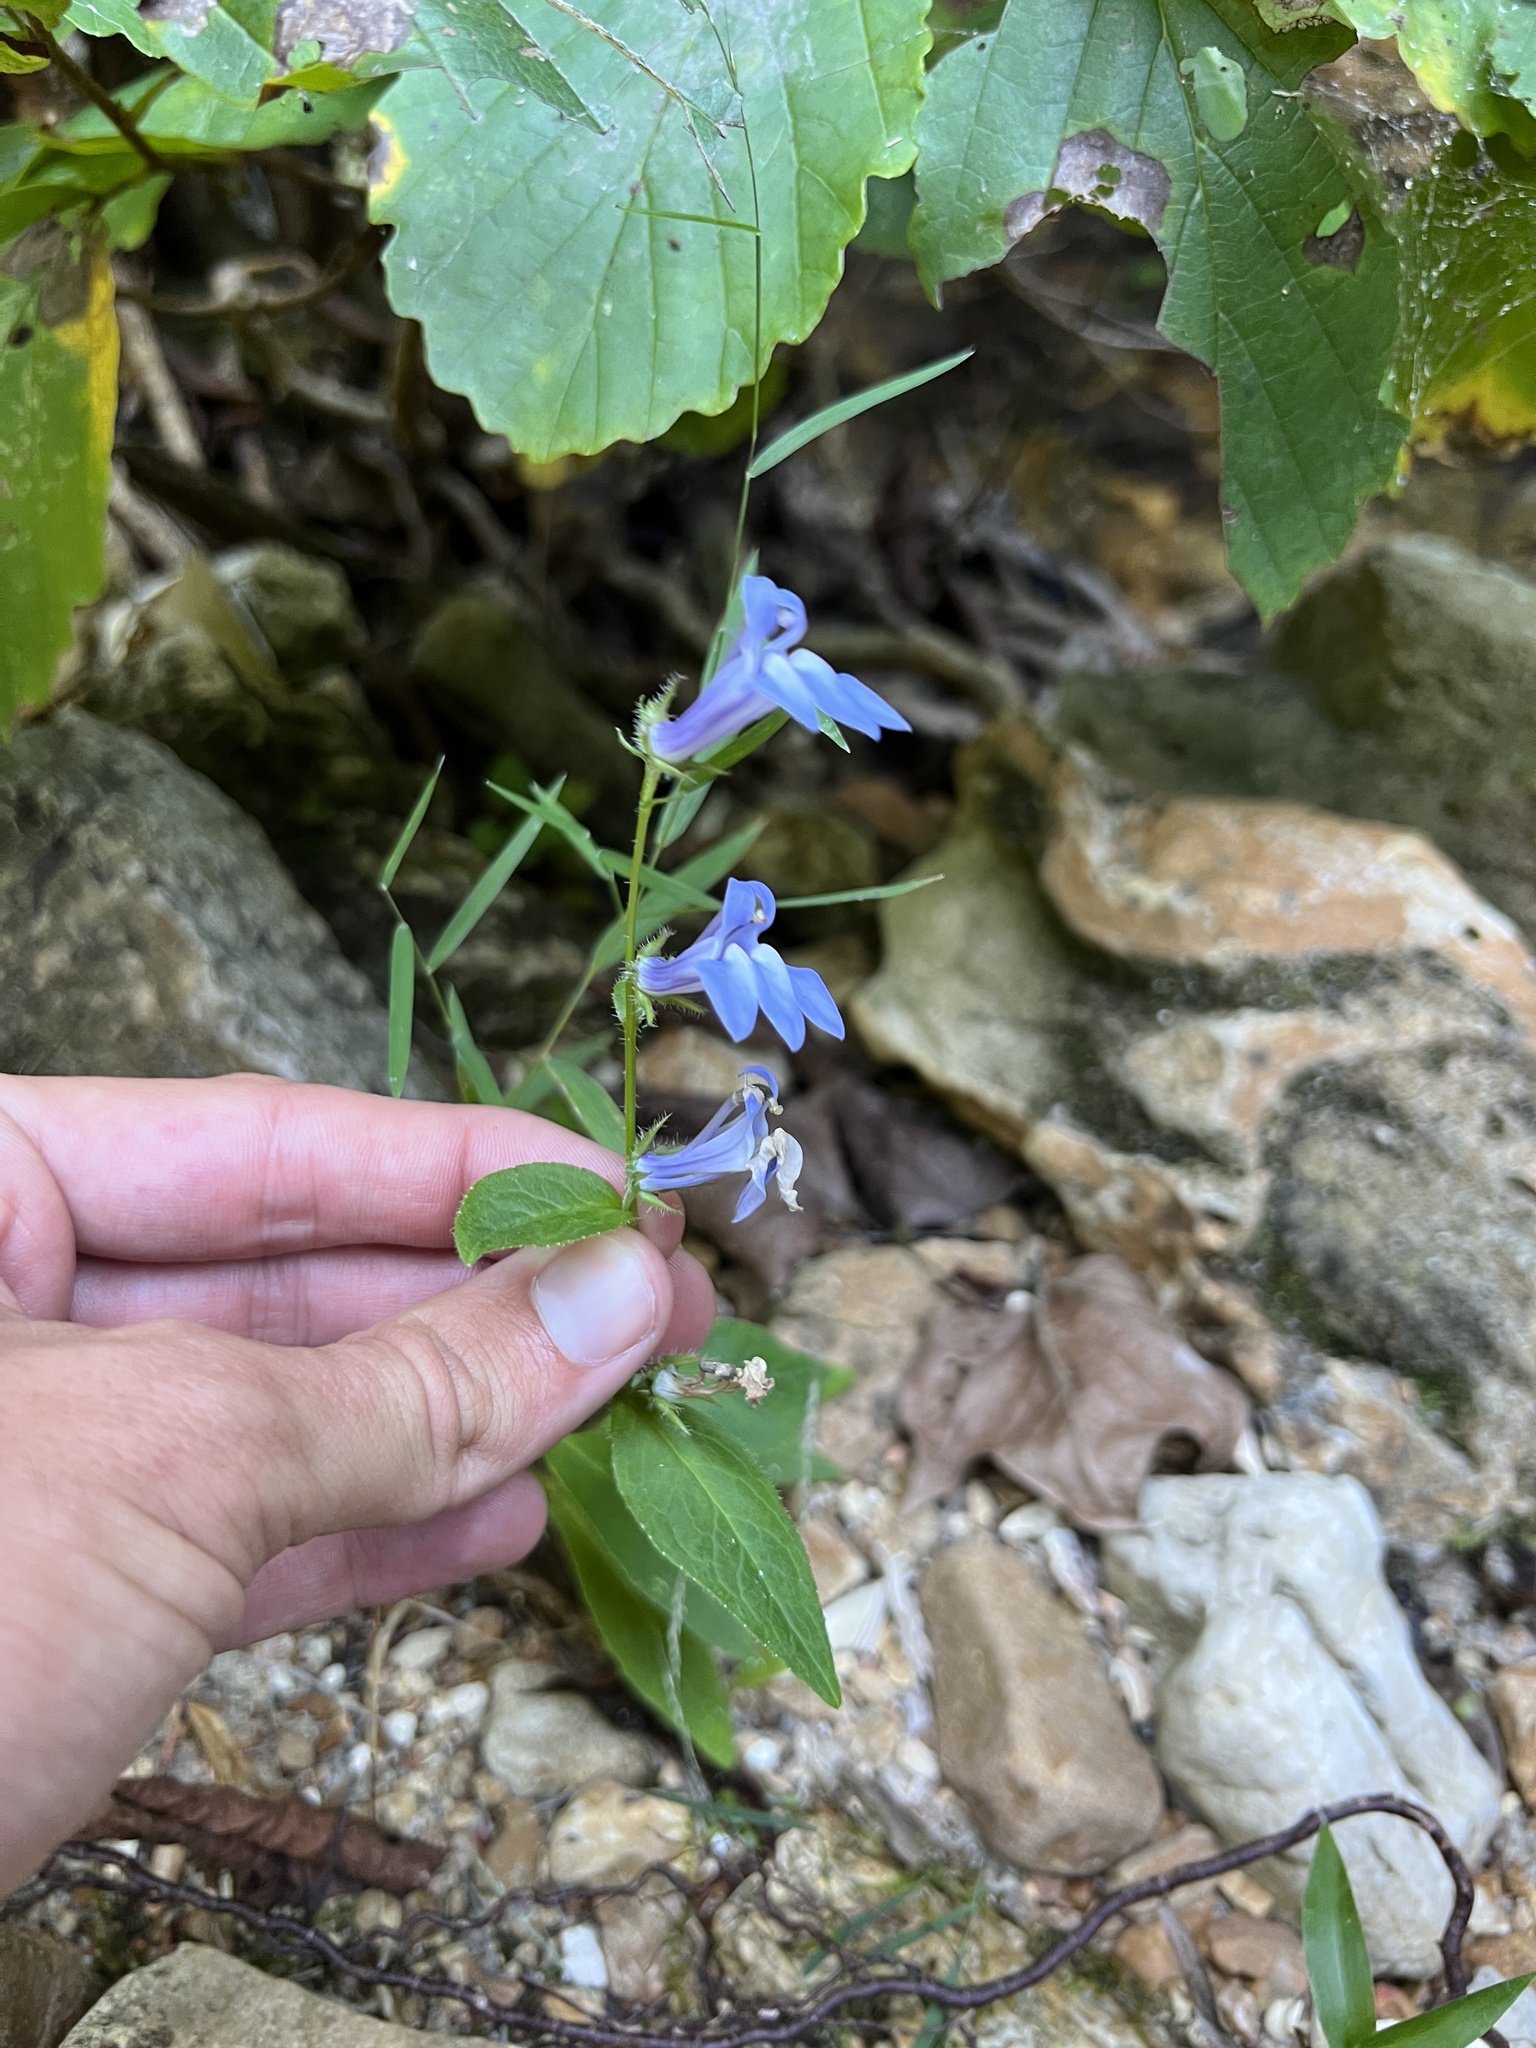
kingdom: Plantae
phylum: Tracheophyta
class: Magnoliopsida
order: Asterales
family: Campanulaceae
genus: Lobelia
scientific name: Lobelia siphilitica
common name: Great lobelia
